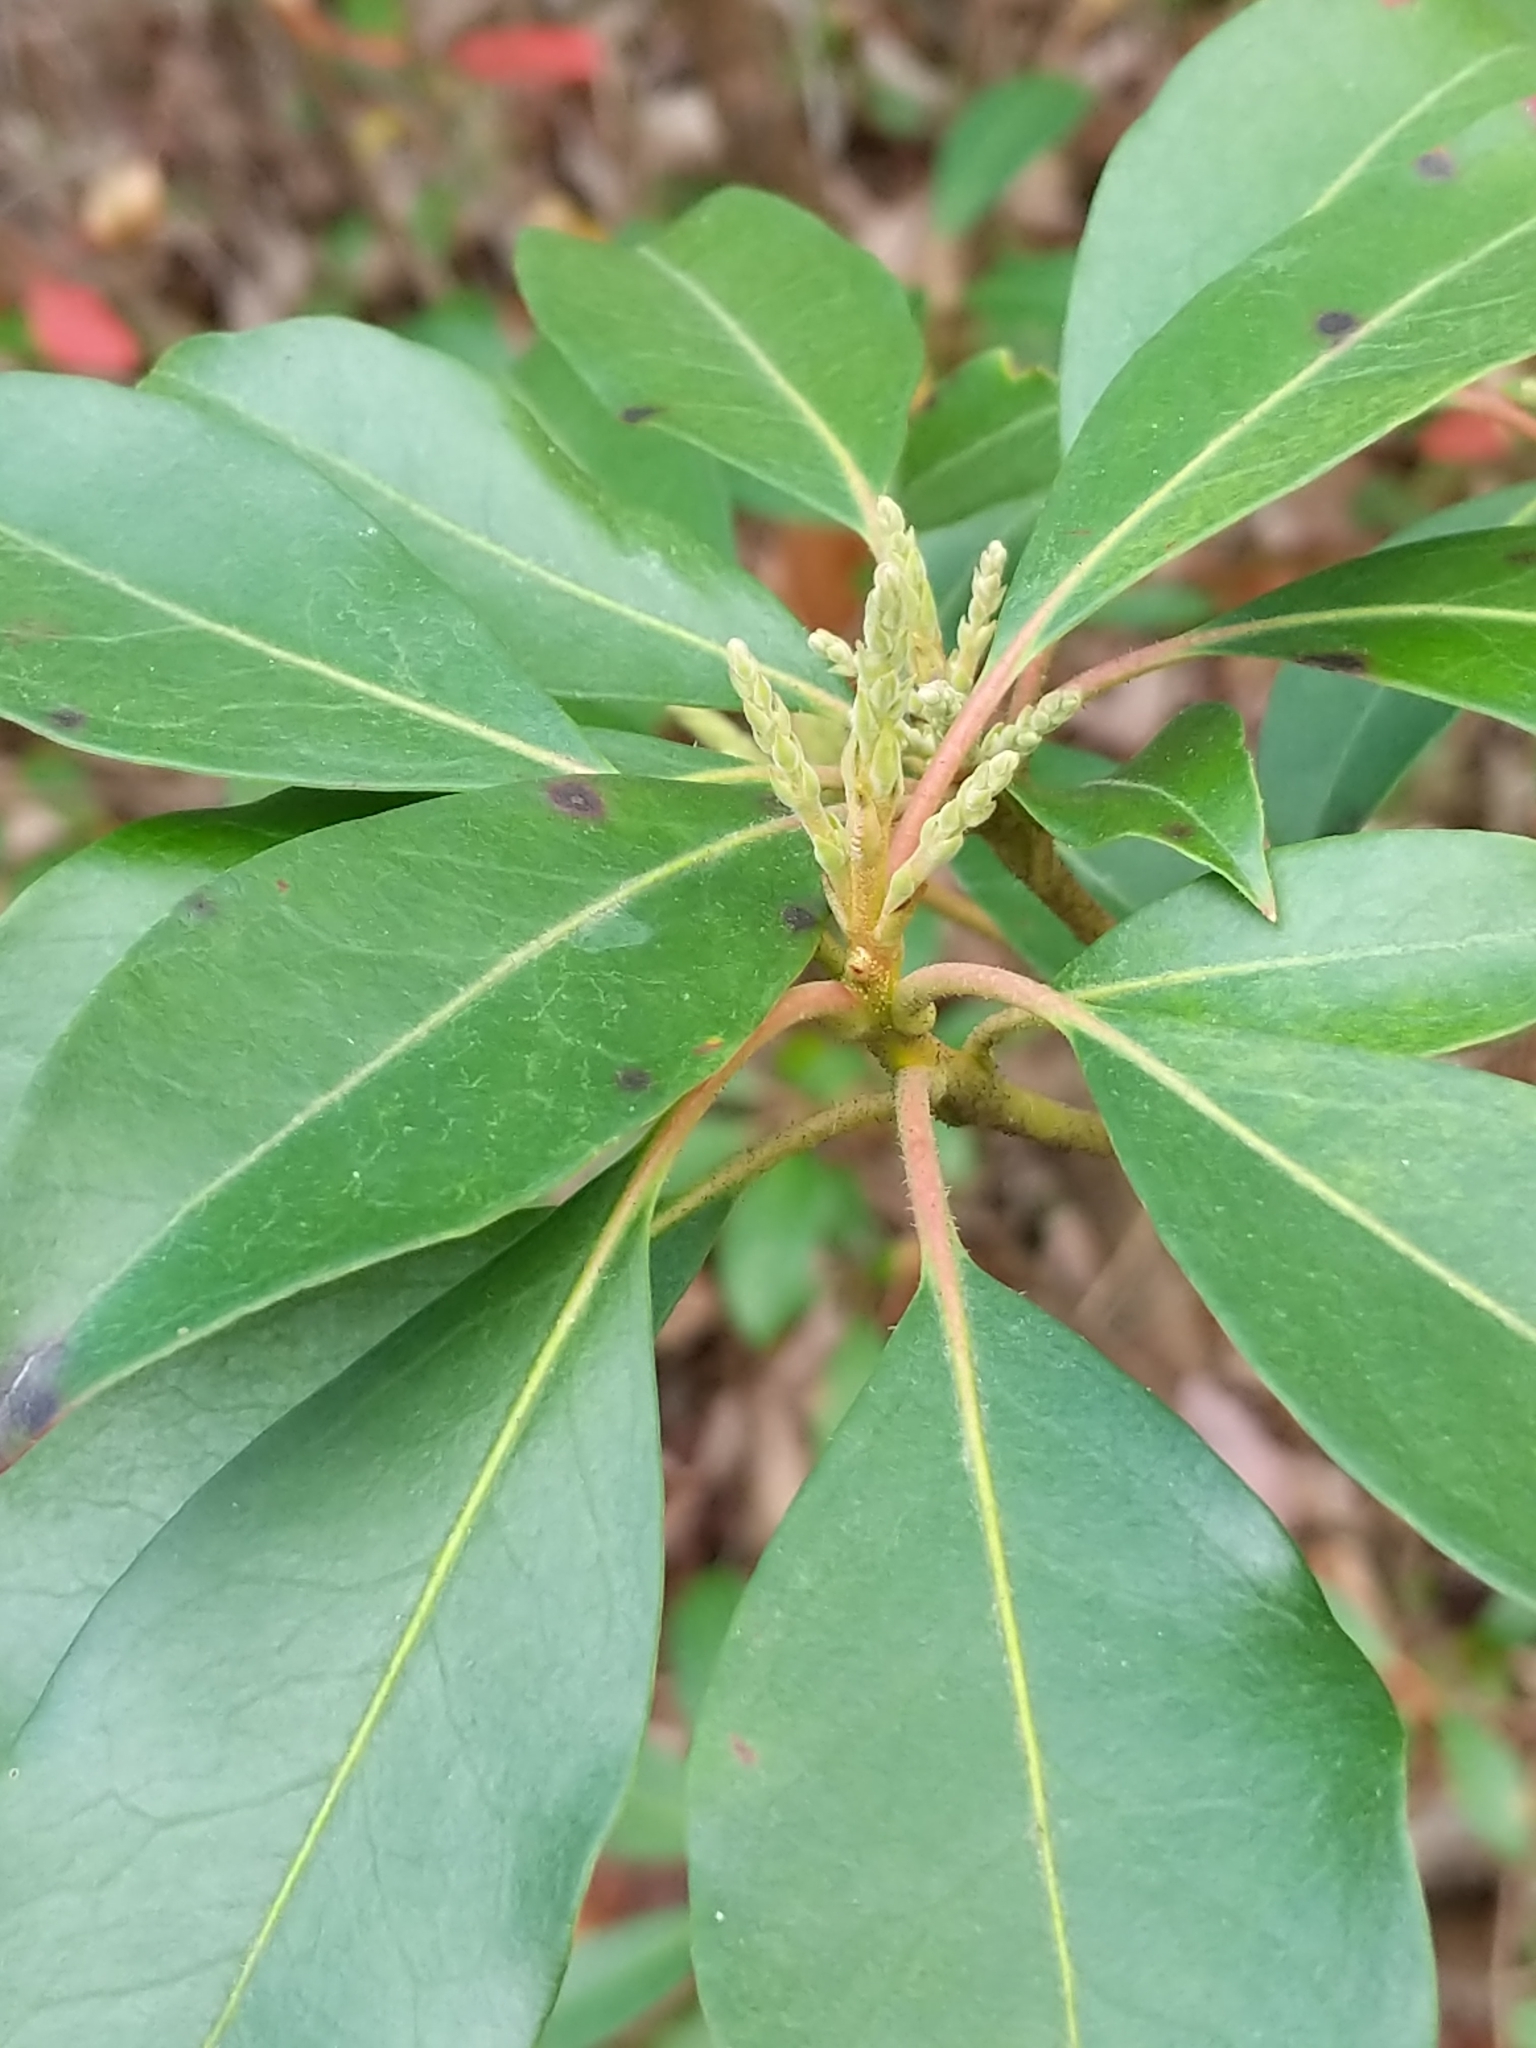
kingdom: Plantae
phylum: Tracheophyta
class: Magnoliopsida
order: Ericales
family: Ericaceae
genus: Kalmia
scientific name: Kalmia latifolia
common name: Mountain-laurel
